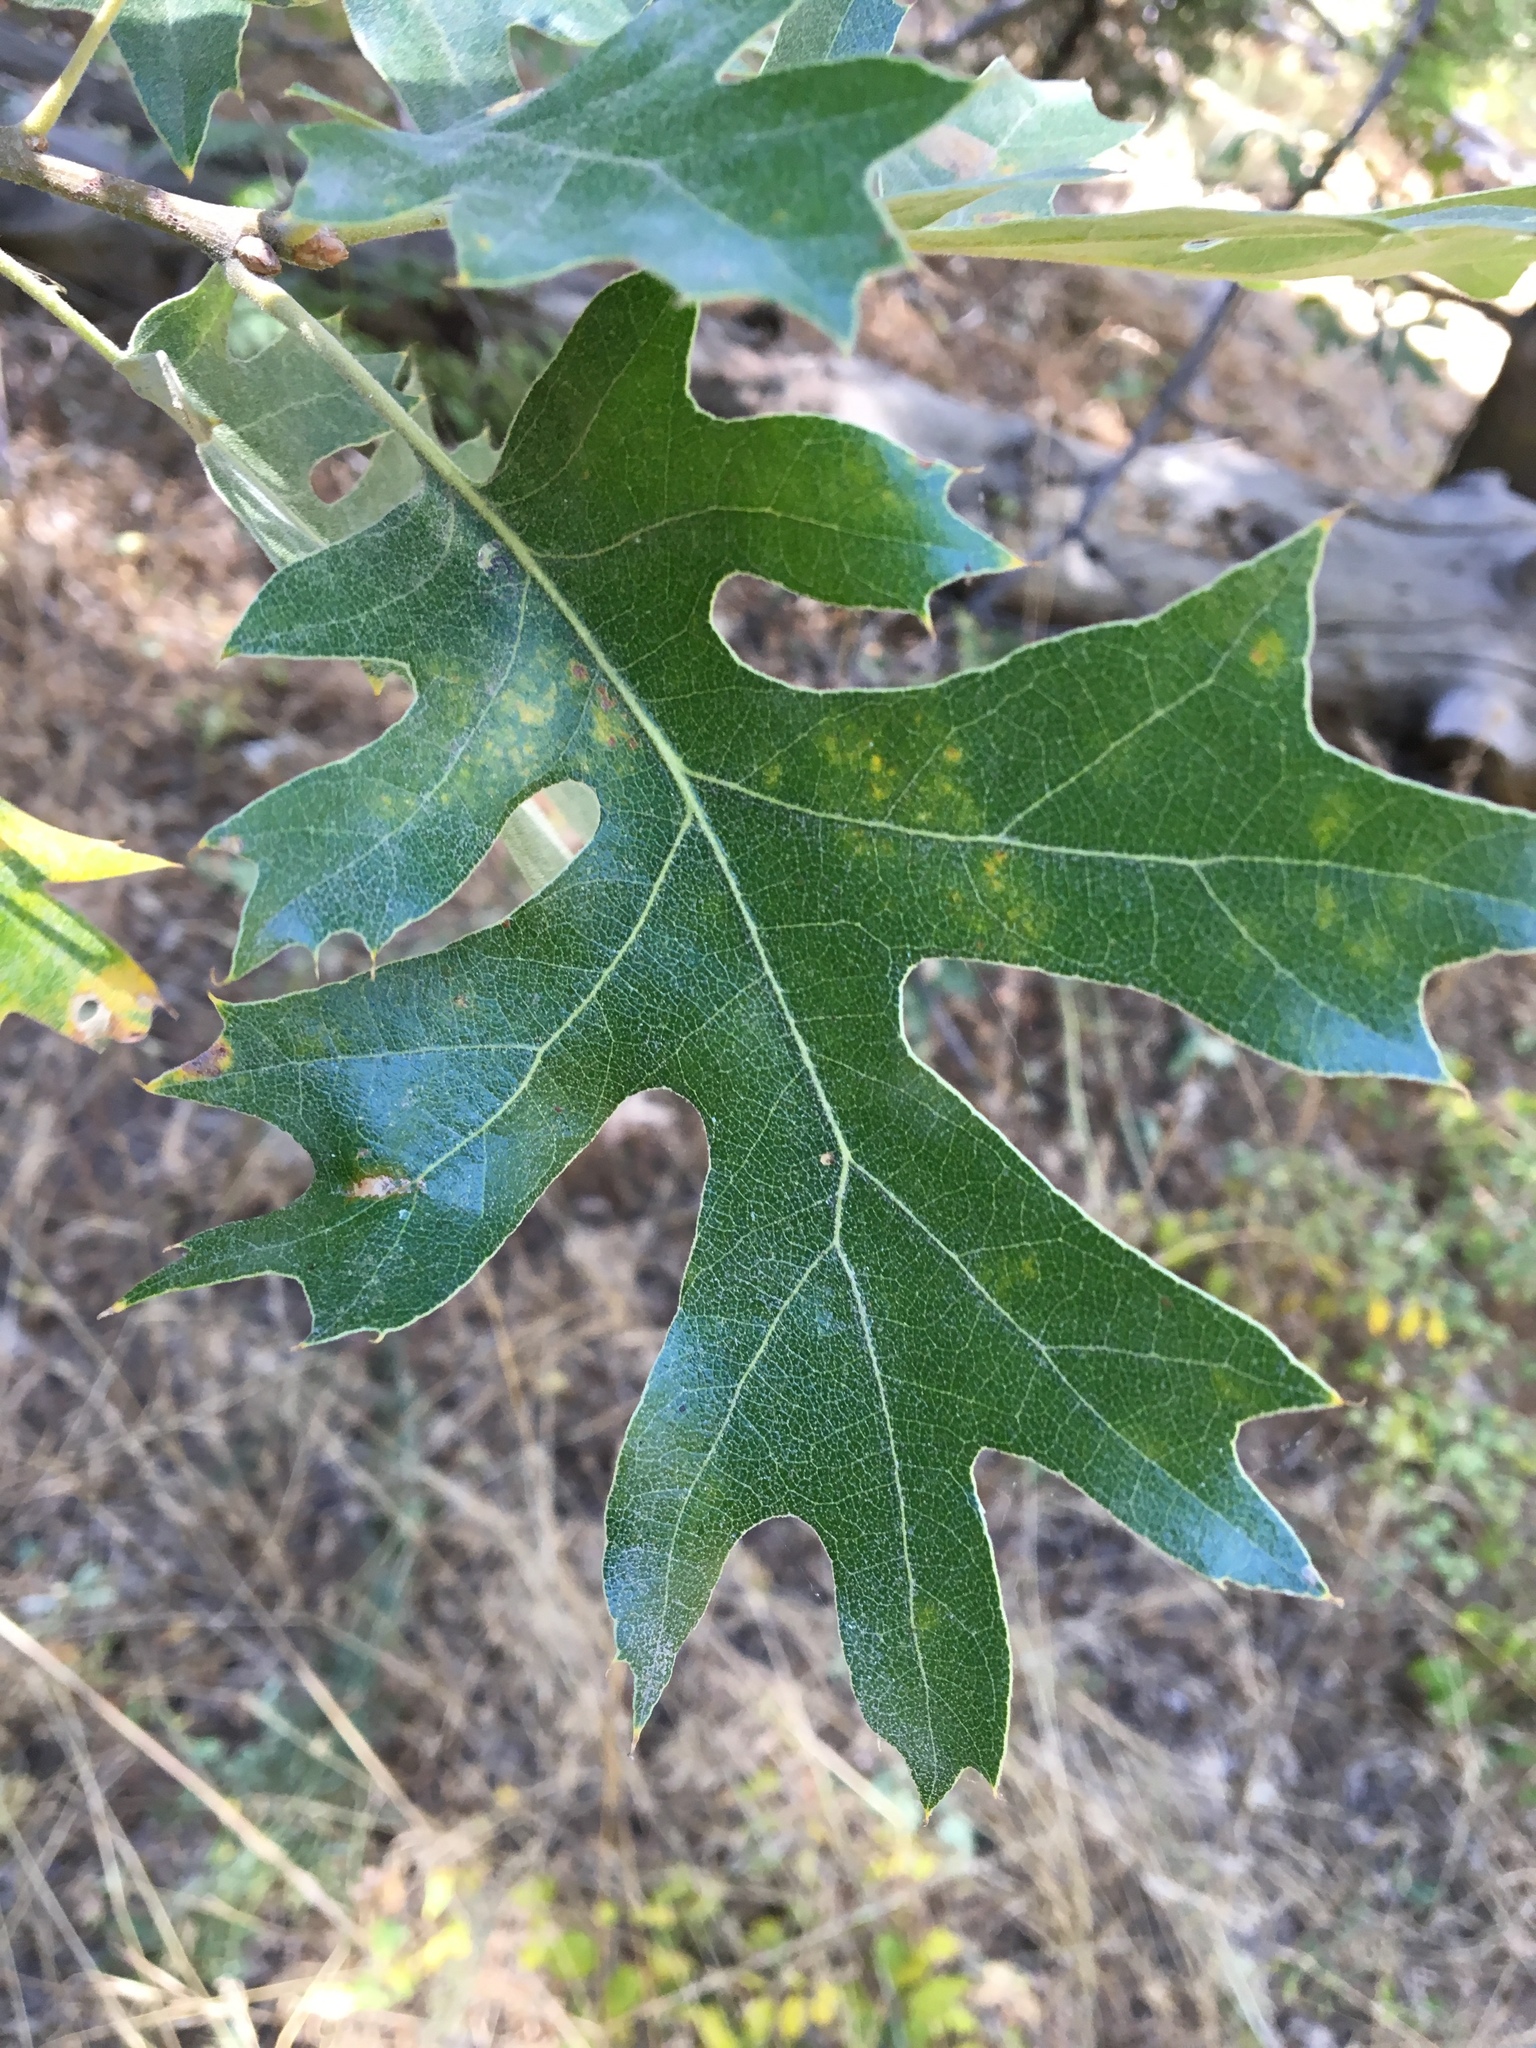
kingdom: Plantae
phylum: Tracheophyta
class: Magnoliopsida
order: Fagales
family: Fagaceae
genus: Quercus
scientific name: Quercus kelloggii
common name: California black oak
